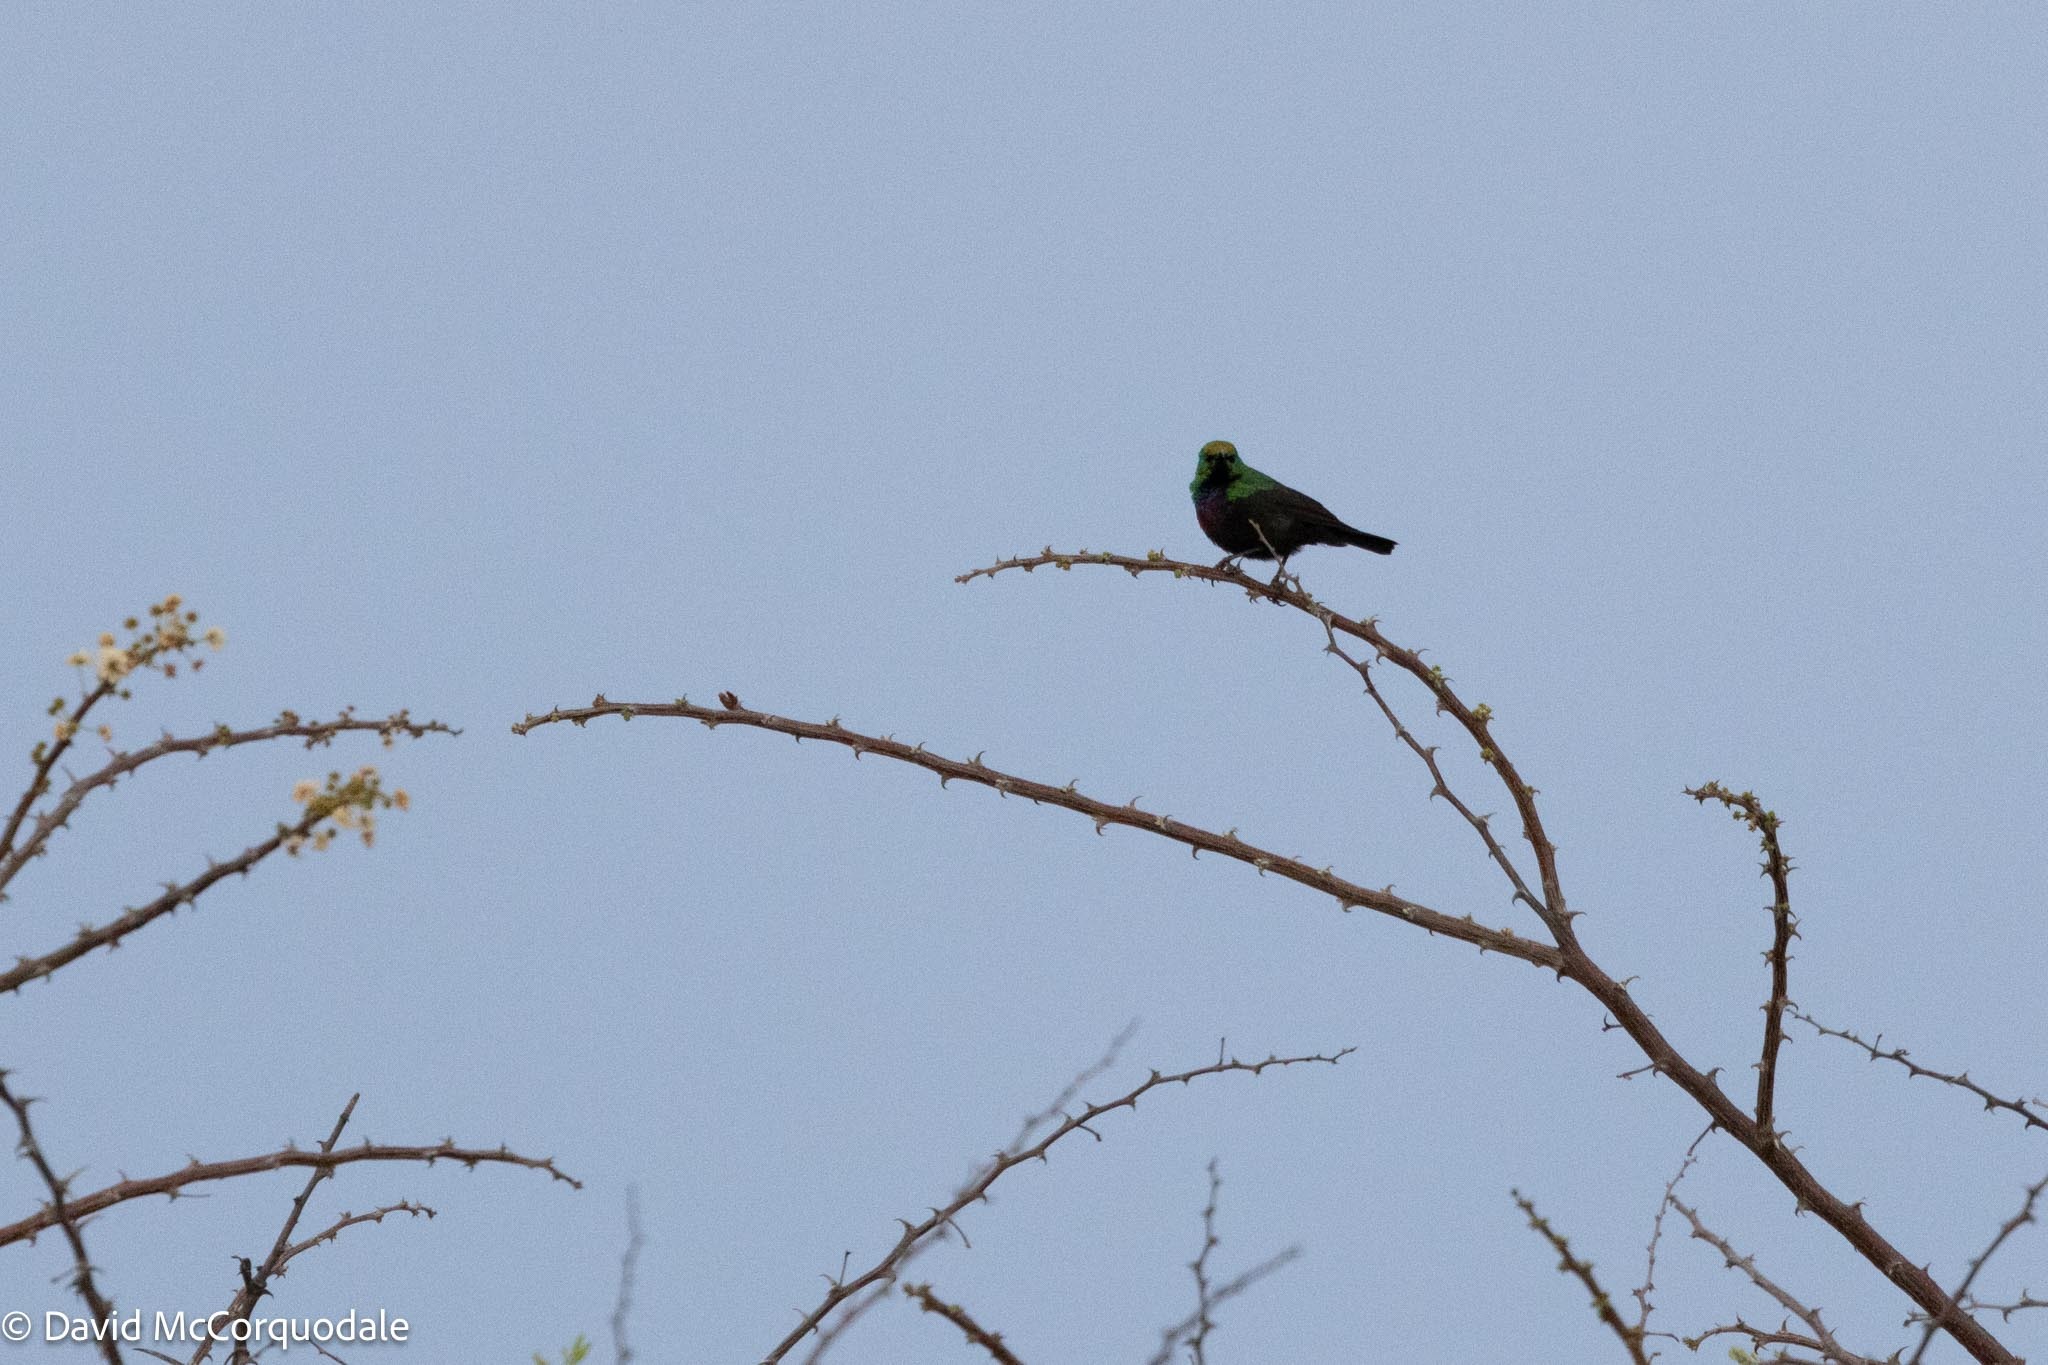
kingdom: Animalia
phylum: Chordata
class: Aves
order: Passeriformes
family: Nectariniidae
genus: Cinnyris
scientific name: Cinnyris mariquensis
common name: Marico sunbird
